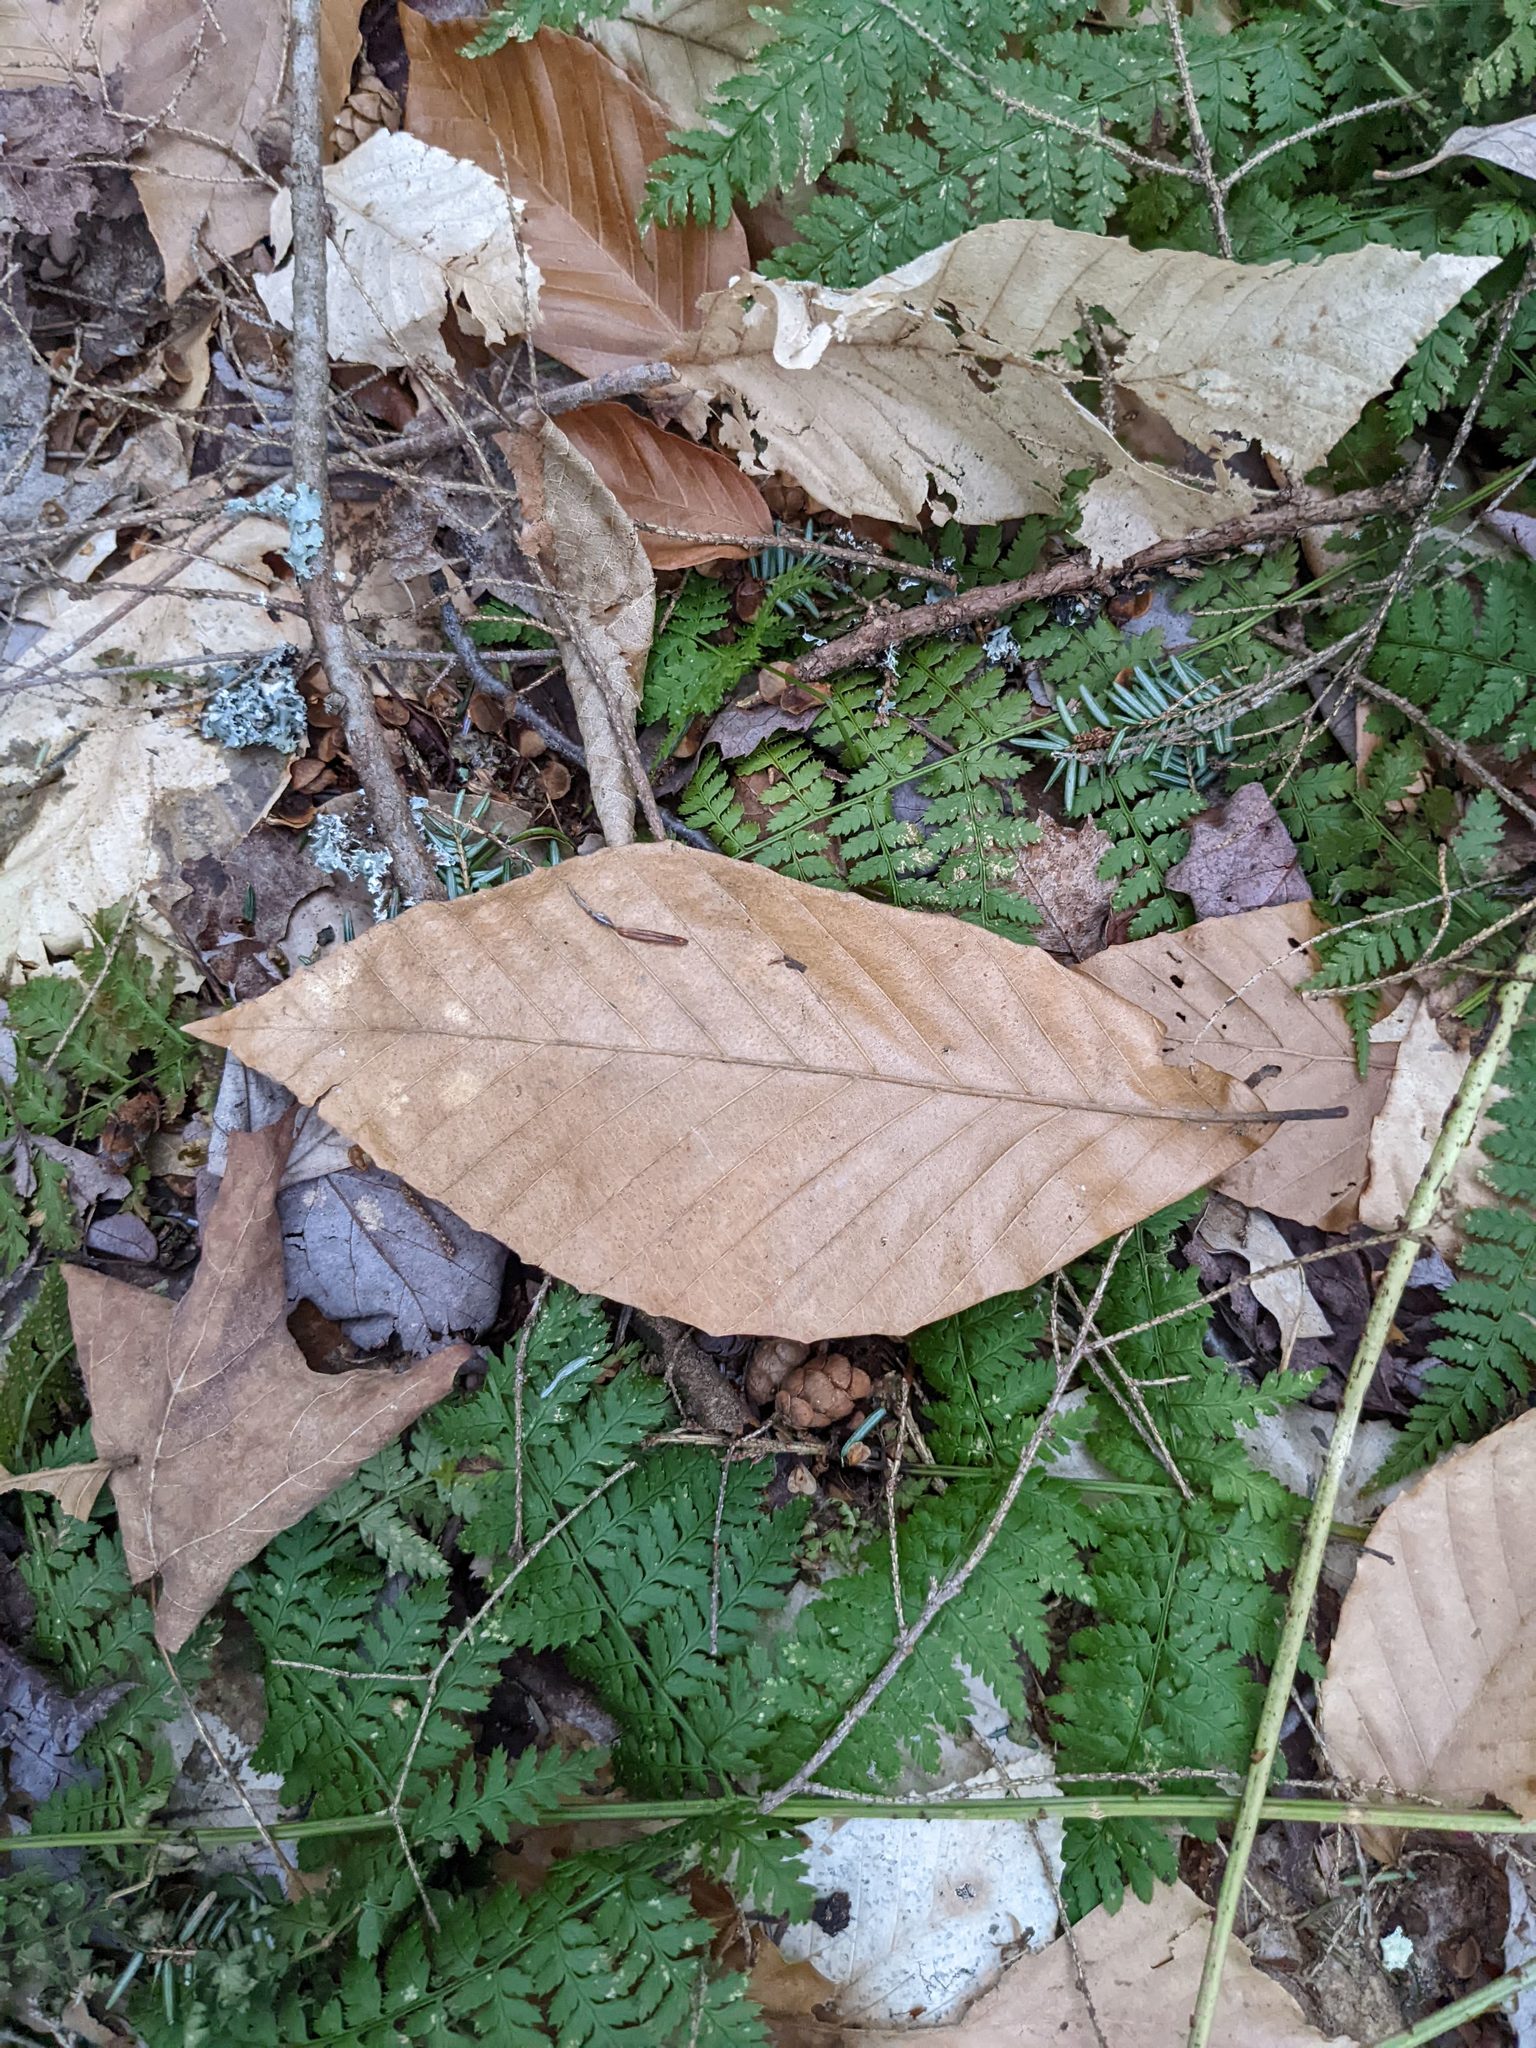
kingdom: Plantae
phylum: Tracheophyta
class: Magnoliopsida
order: Fagales
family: Fagaceae
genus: Fagus
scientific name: Fagus grandifolia
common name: American beech
